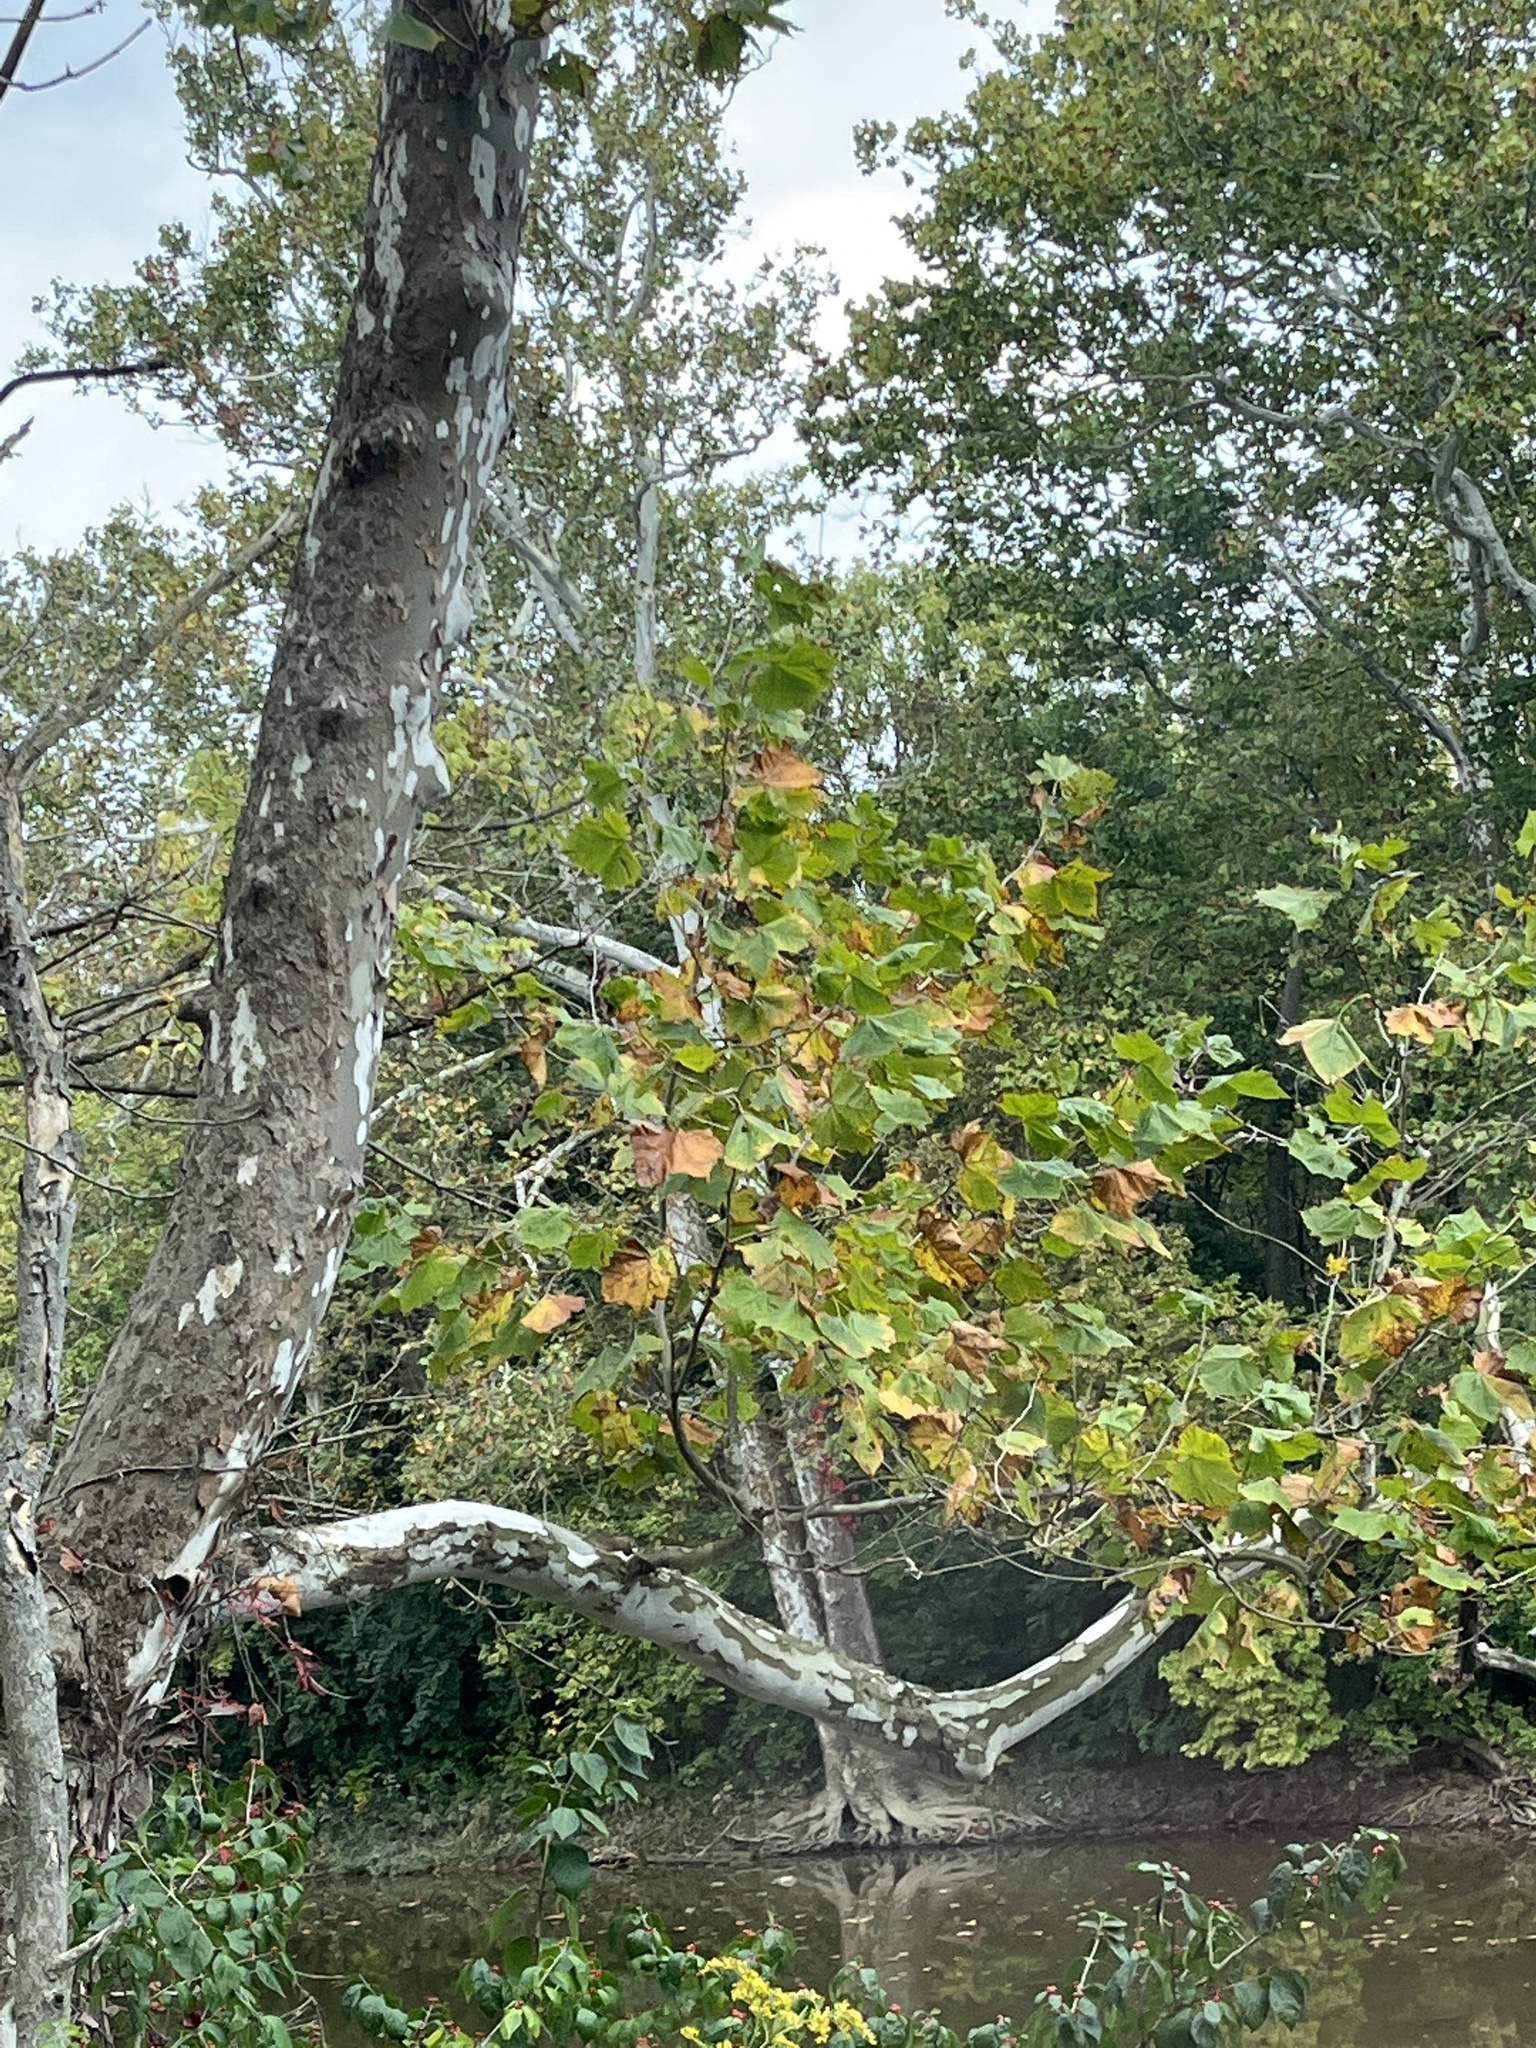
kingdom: Plantae
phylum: Tracheophyta
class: Magnoliopsida
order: Proteales
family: Platanaceae
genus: Platanus
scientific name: Platanus occidentalis
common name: American sycamore
